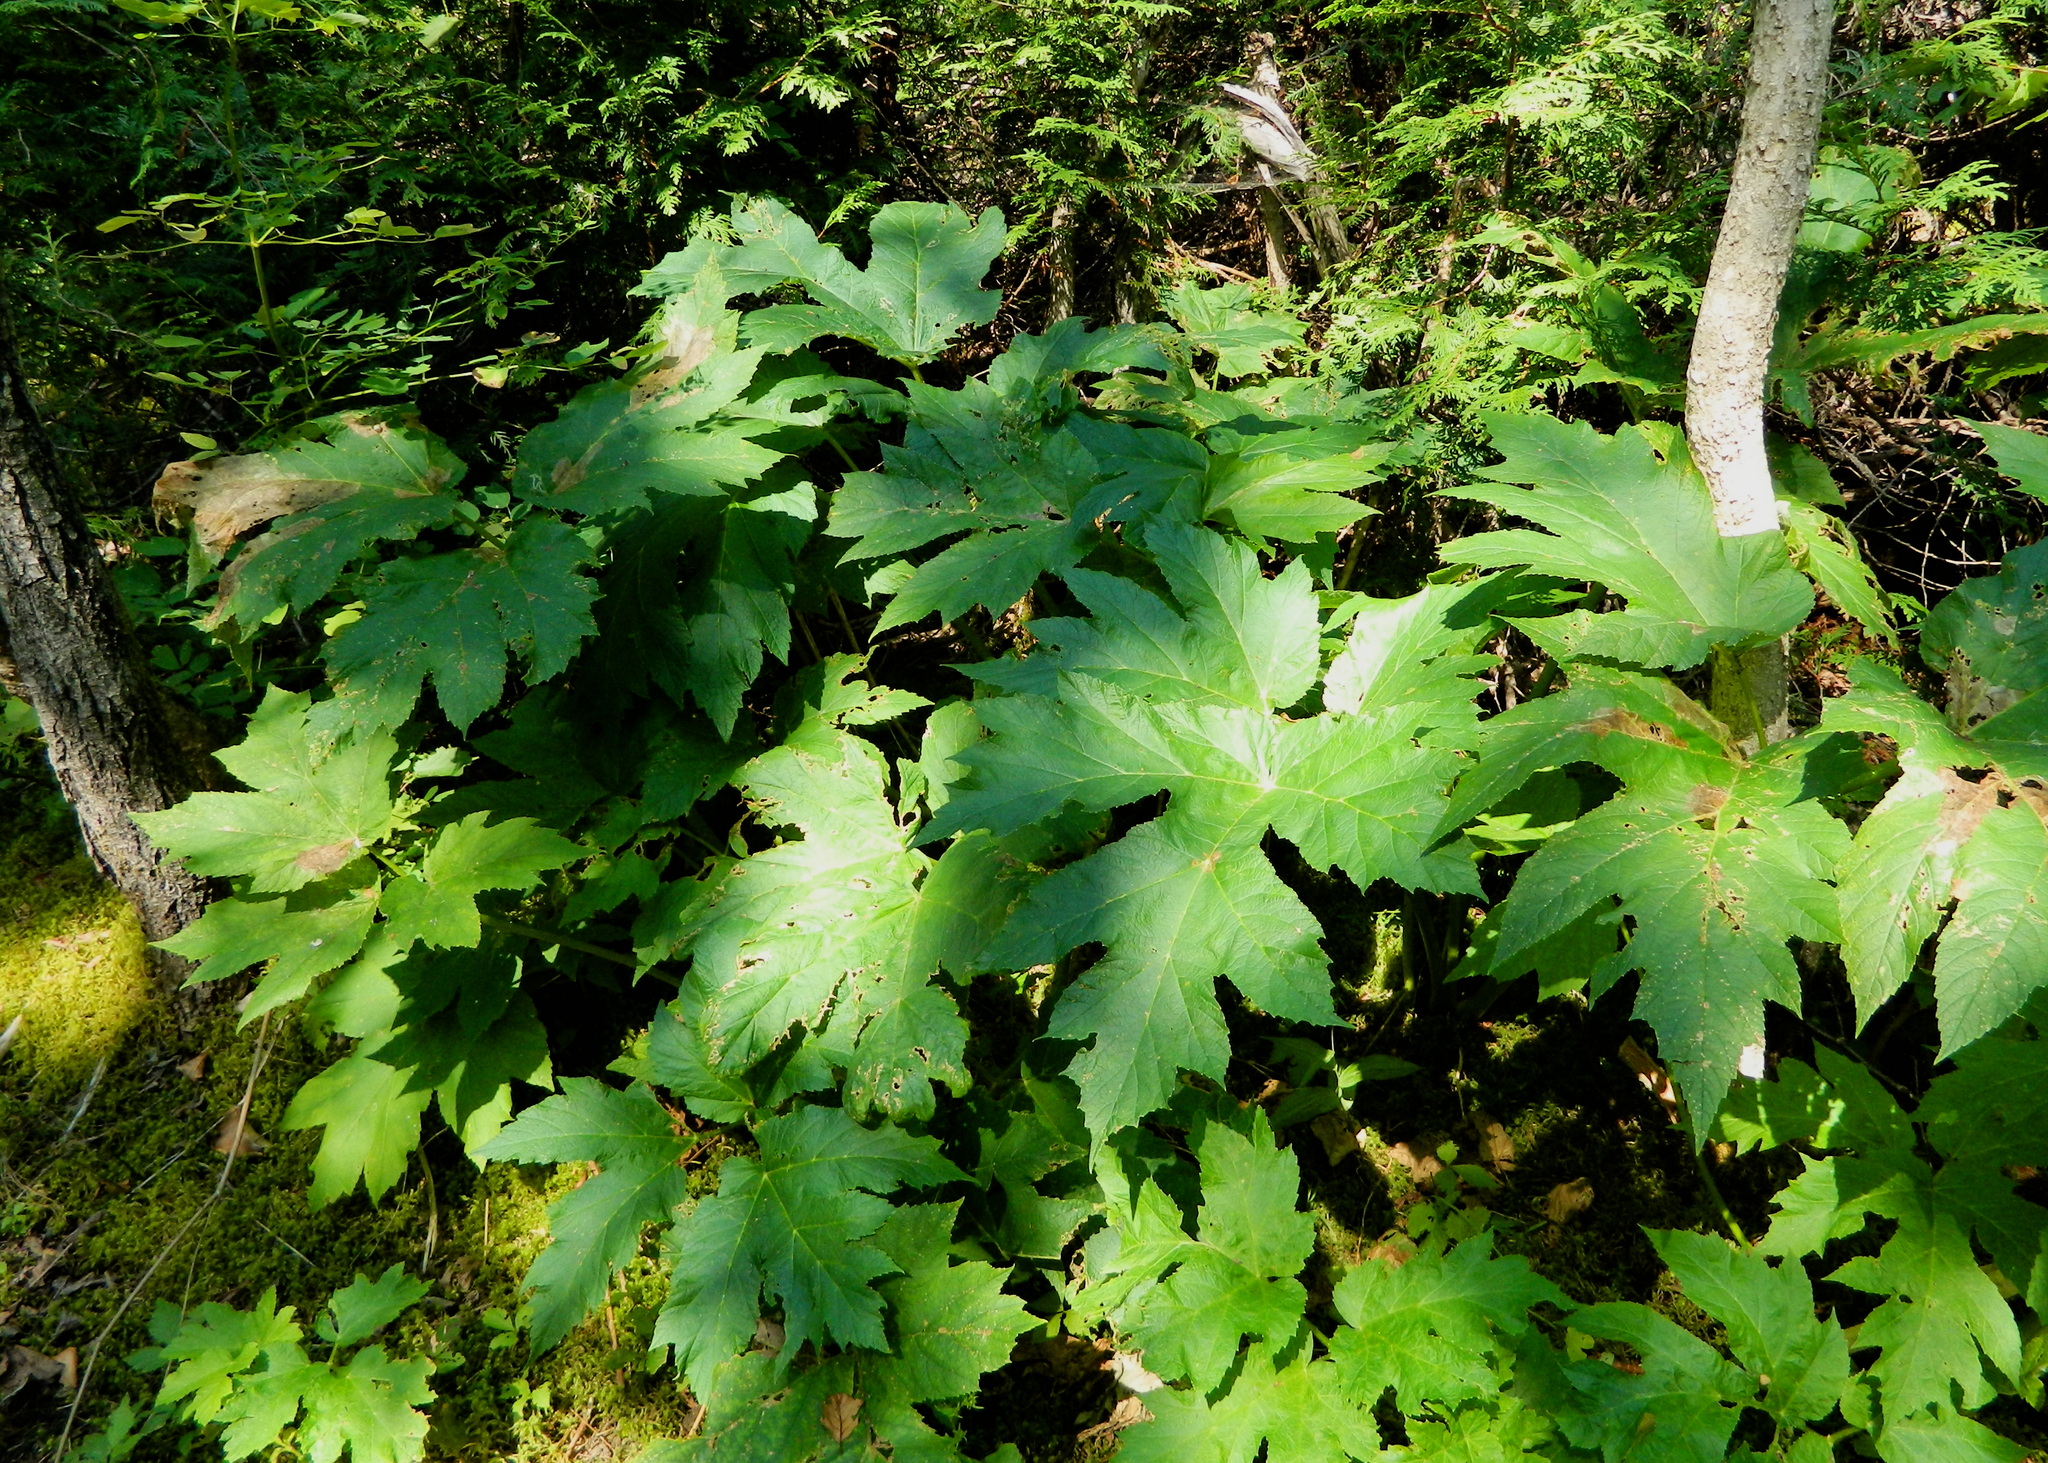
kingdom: Plantae
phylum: Tracheophyta
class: Magnoliopsida
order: Apiales
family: Apiaceae
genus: Heracleum
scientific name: Heracleum maximum
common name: American cow parsnip
